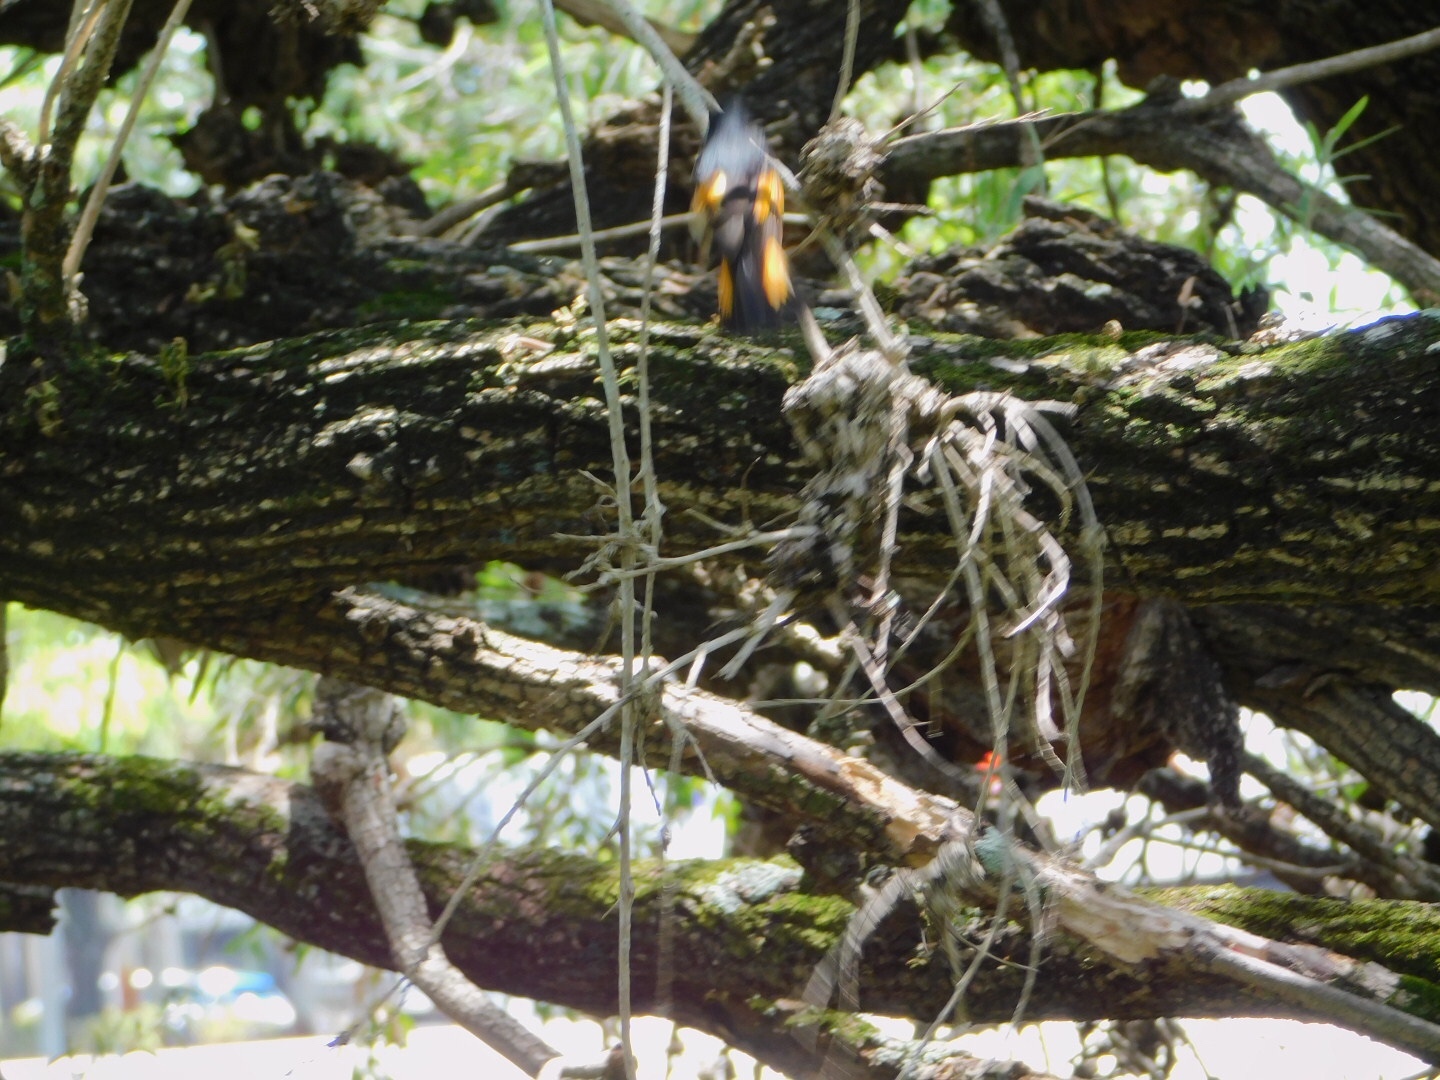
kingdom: Animalia
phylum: Chordata
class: Aves
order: Passeriformes
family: Parulidae
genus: Setophaga
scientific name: Setophaga ruticilla
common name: American redstart
